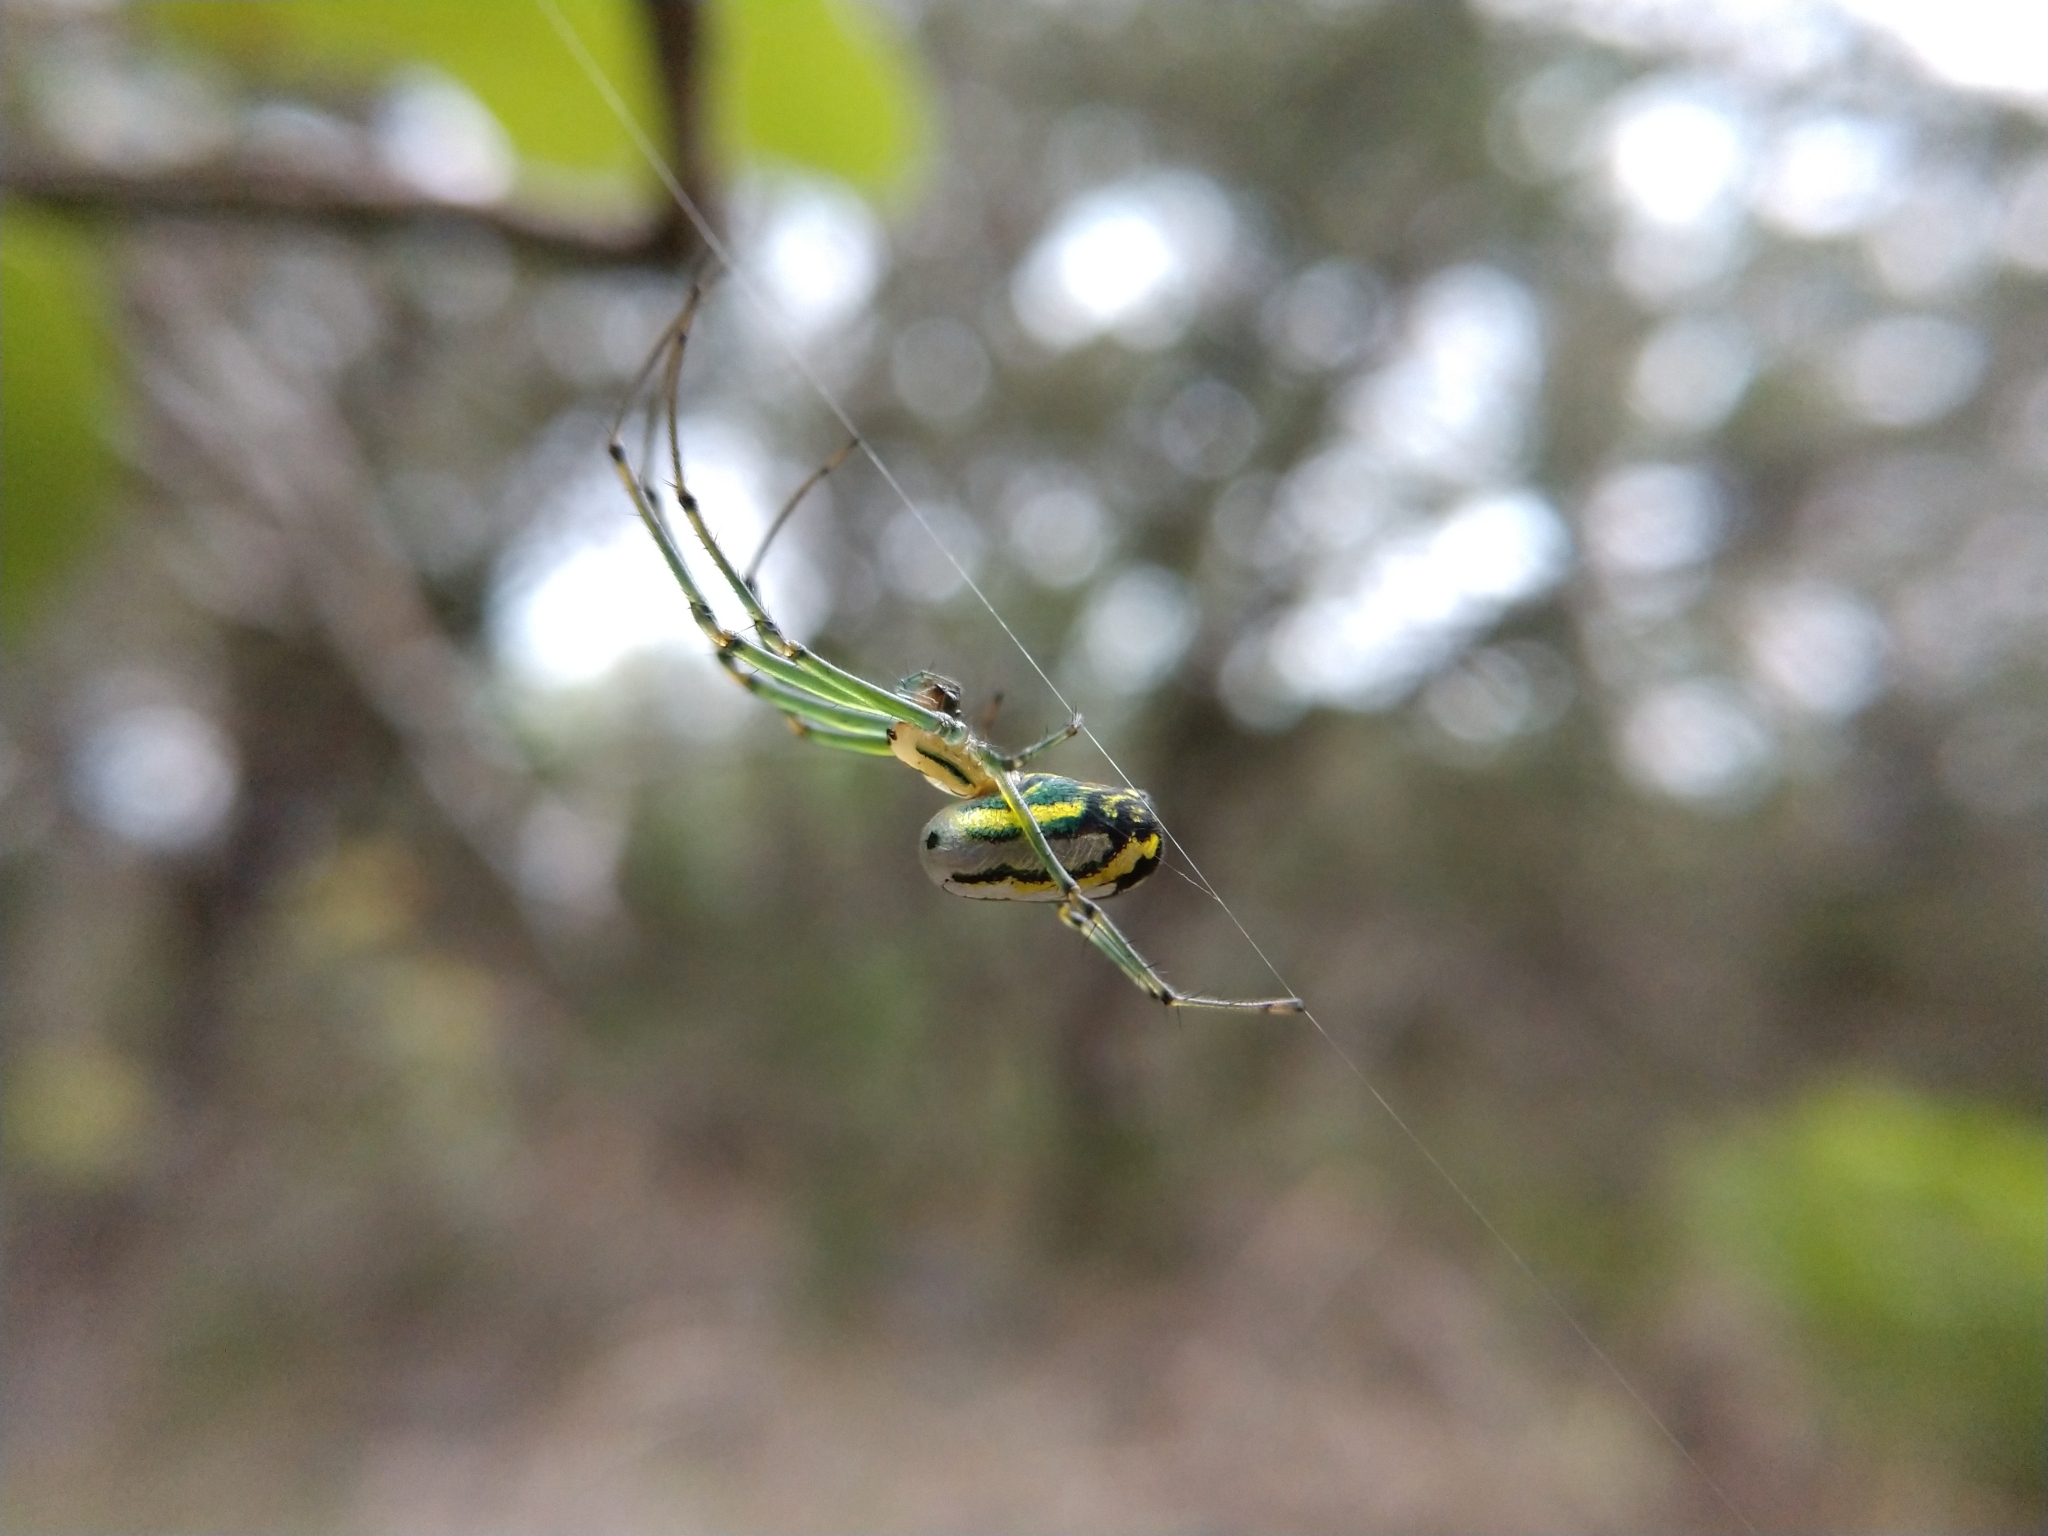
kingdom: Animalia
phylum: Arthropoda
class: Arachnida
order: Araneae
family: Tetragnathidae
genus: Leucauge
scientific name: Leucauge venusta
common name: Longjawed orb weavers
